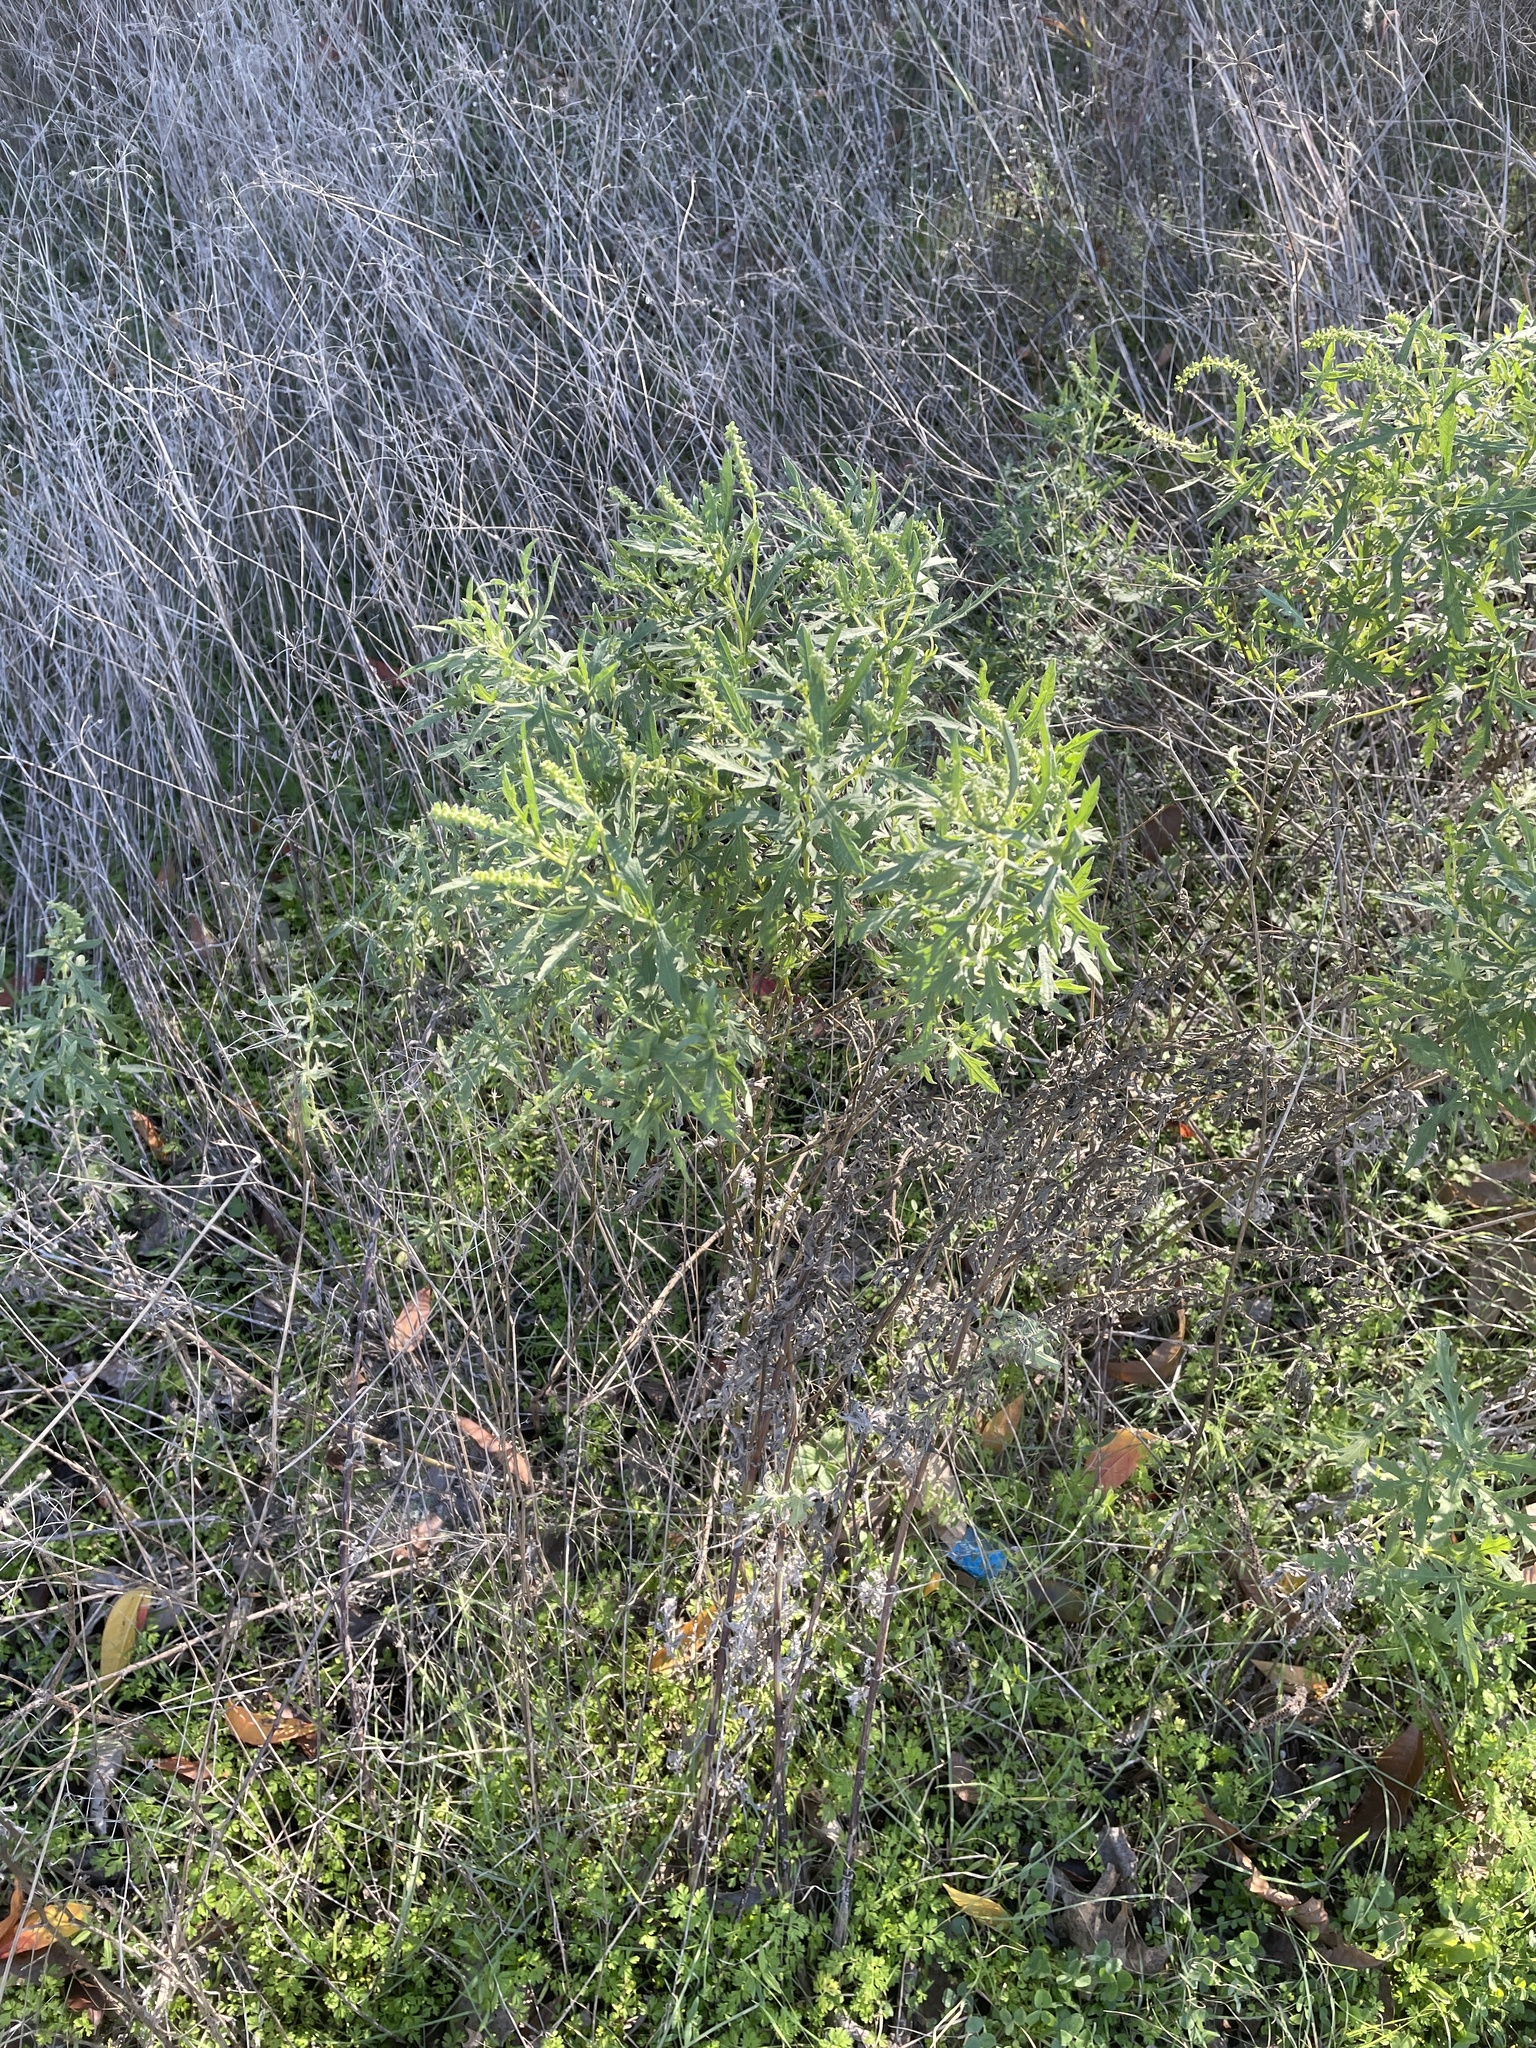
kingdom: Plantae
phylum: Tracheophyta
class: Magnoliopsida
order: Asterales
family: Asteraceae
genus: Ambrosia
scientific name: Ambrosia psilostachya
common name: Perennial ragweed
